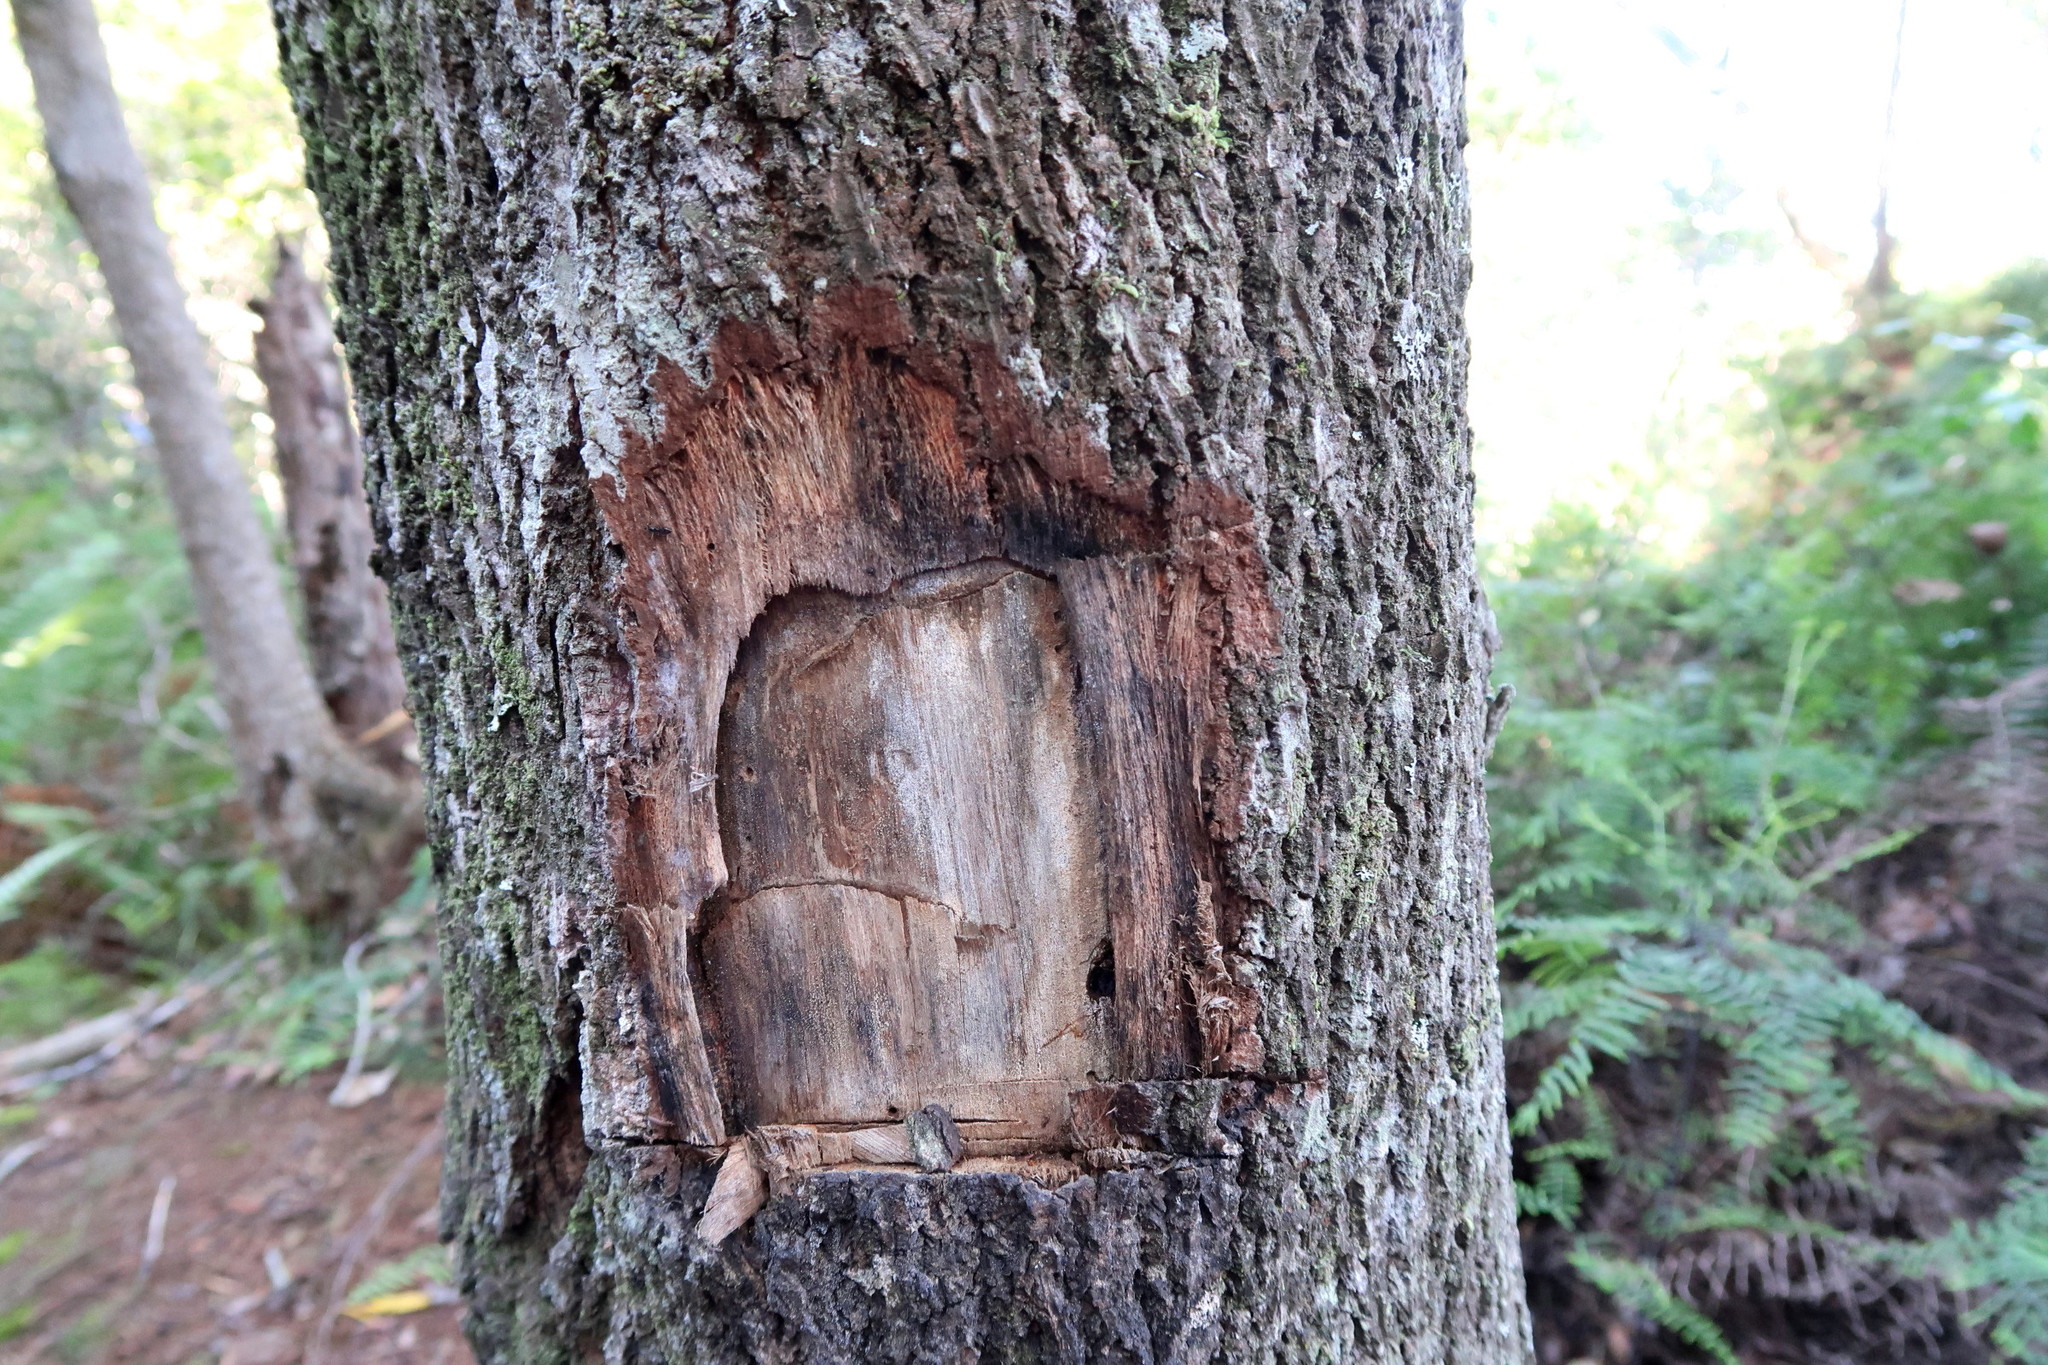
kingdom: Plantae
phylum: Tracheophyta
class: Magnoliopsida
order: Fabales
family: Fabaceae
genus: Virgilia
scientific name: Virgilia divaricata
